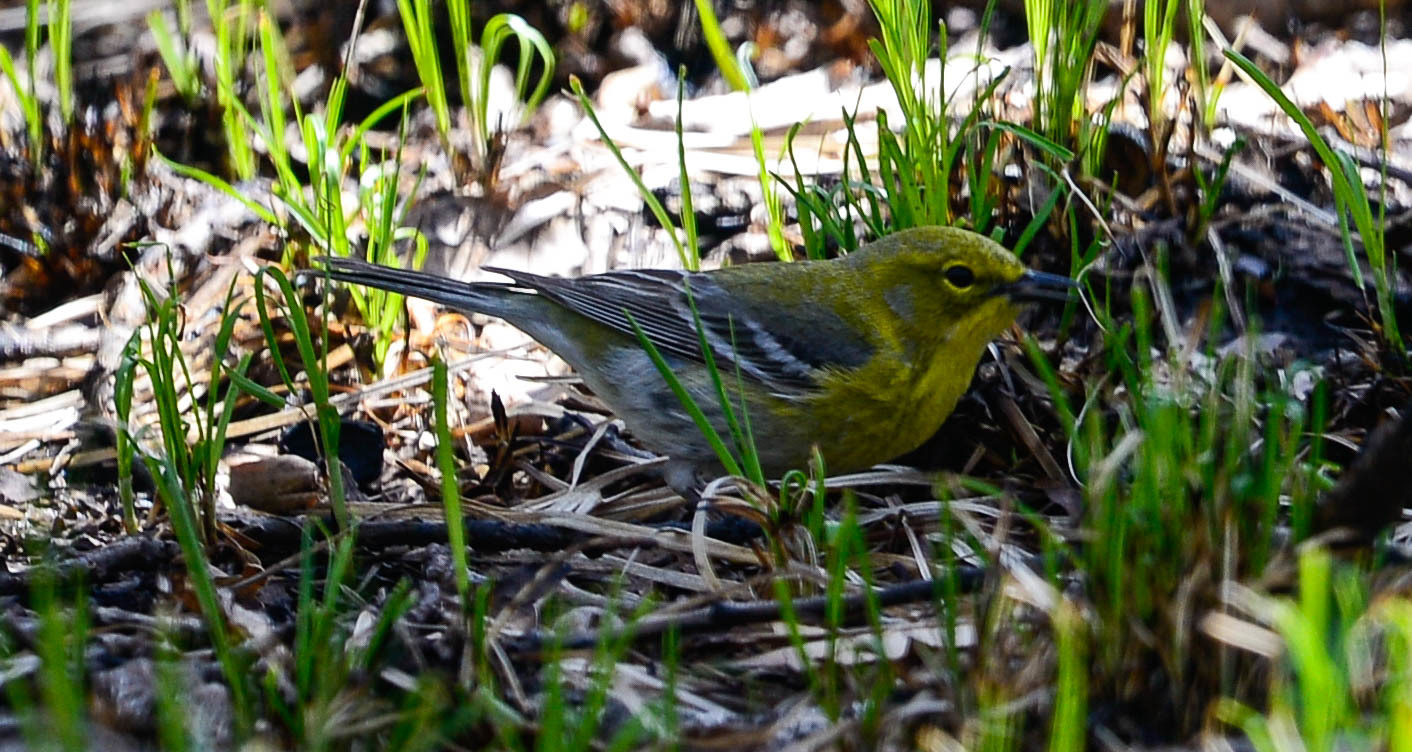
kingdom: Animalia
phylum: Chordata
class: Aves
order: Passeriformes
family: Parulidae
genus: Setophaga
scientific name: Setophaga pinus
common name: Pine warbler
